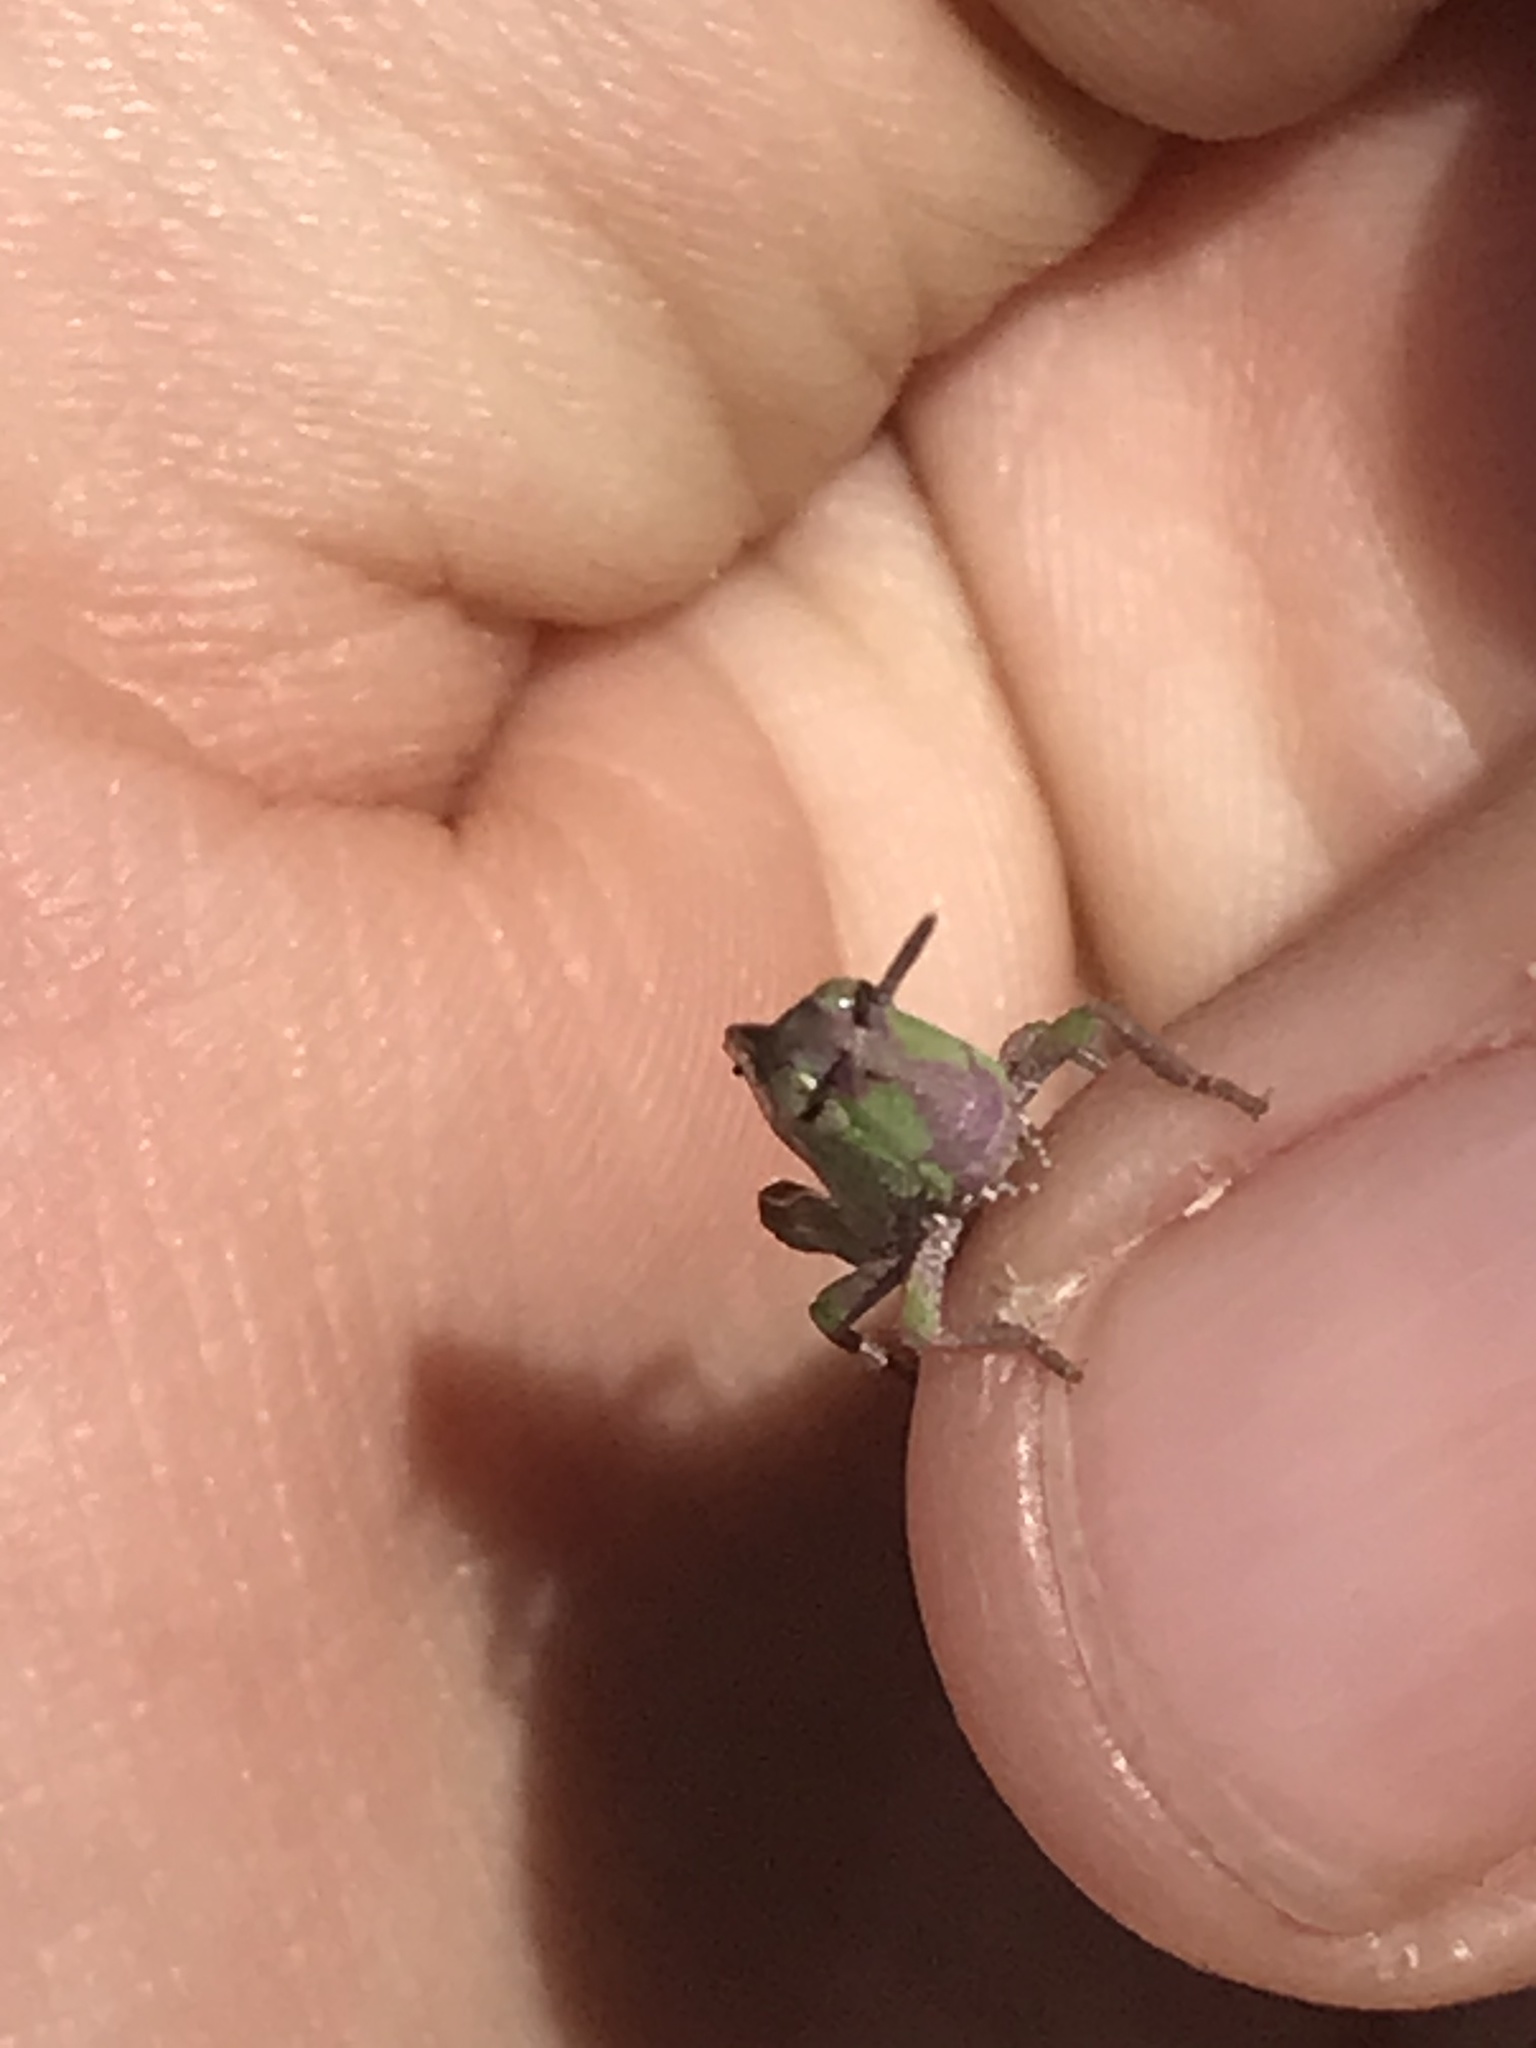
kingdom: Animalia
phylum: Arthropoda
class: Insecta
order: Orthoptera
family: Acrididae
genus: Chortophaga
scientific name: Chortophaga viridifasciata
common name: Green-striped grasshopper
